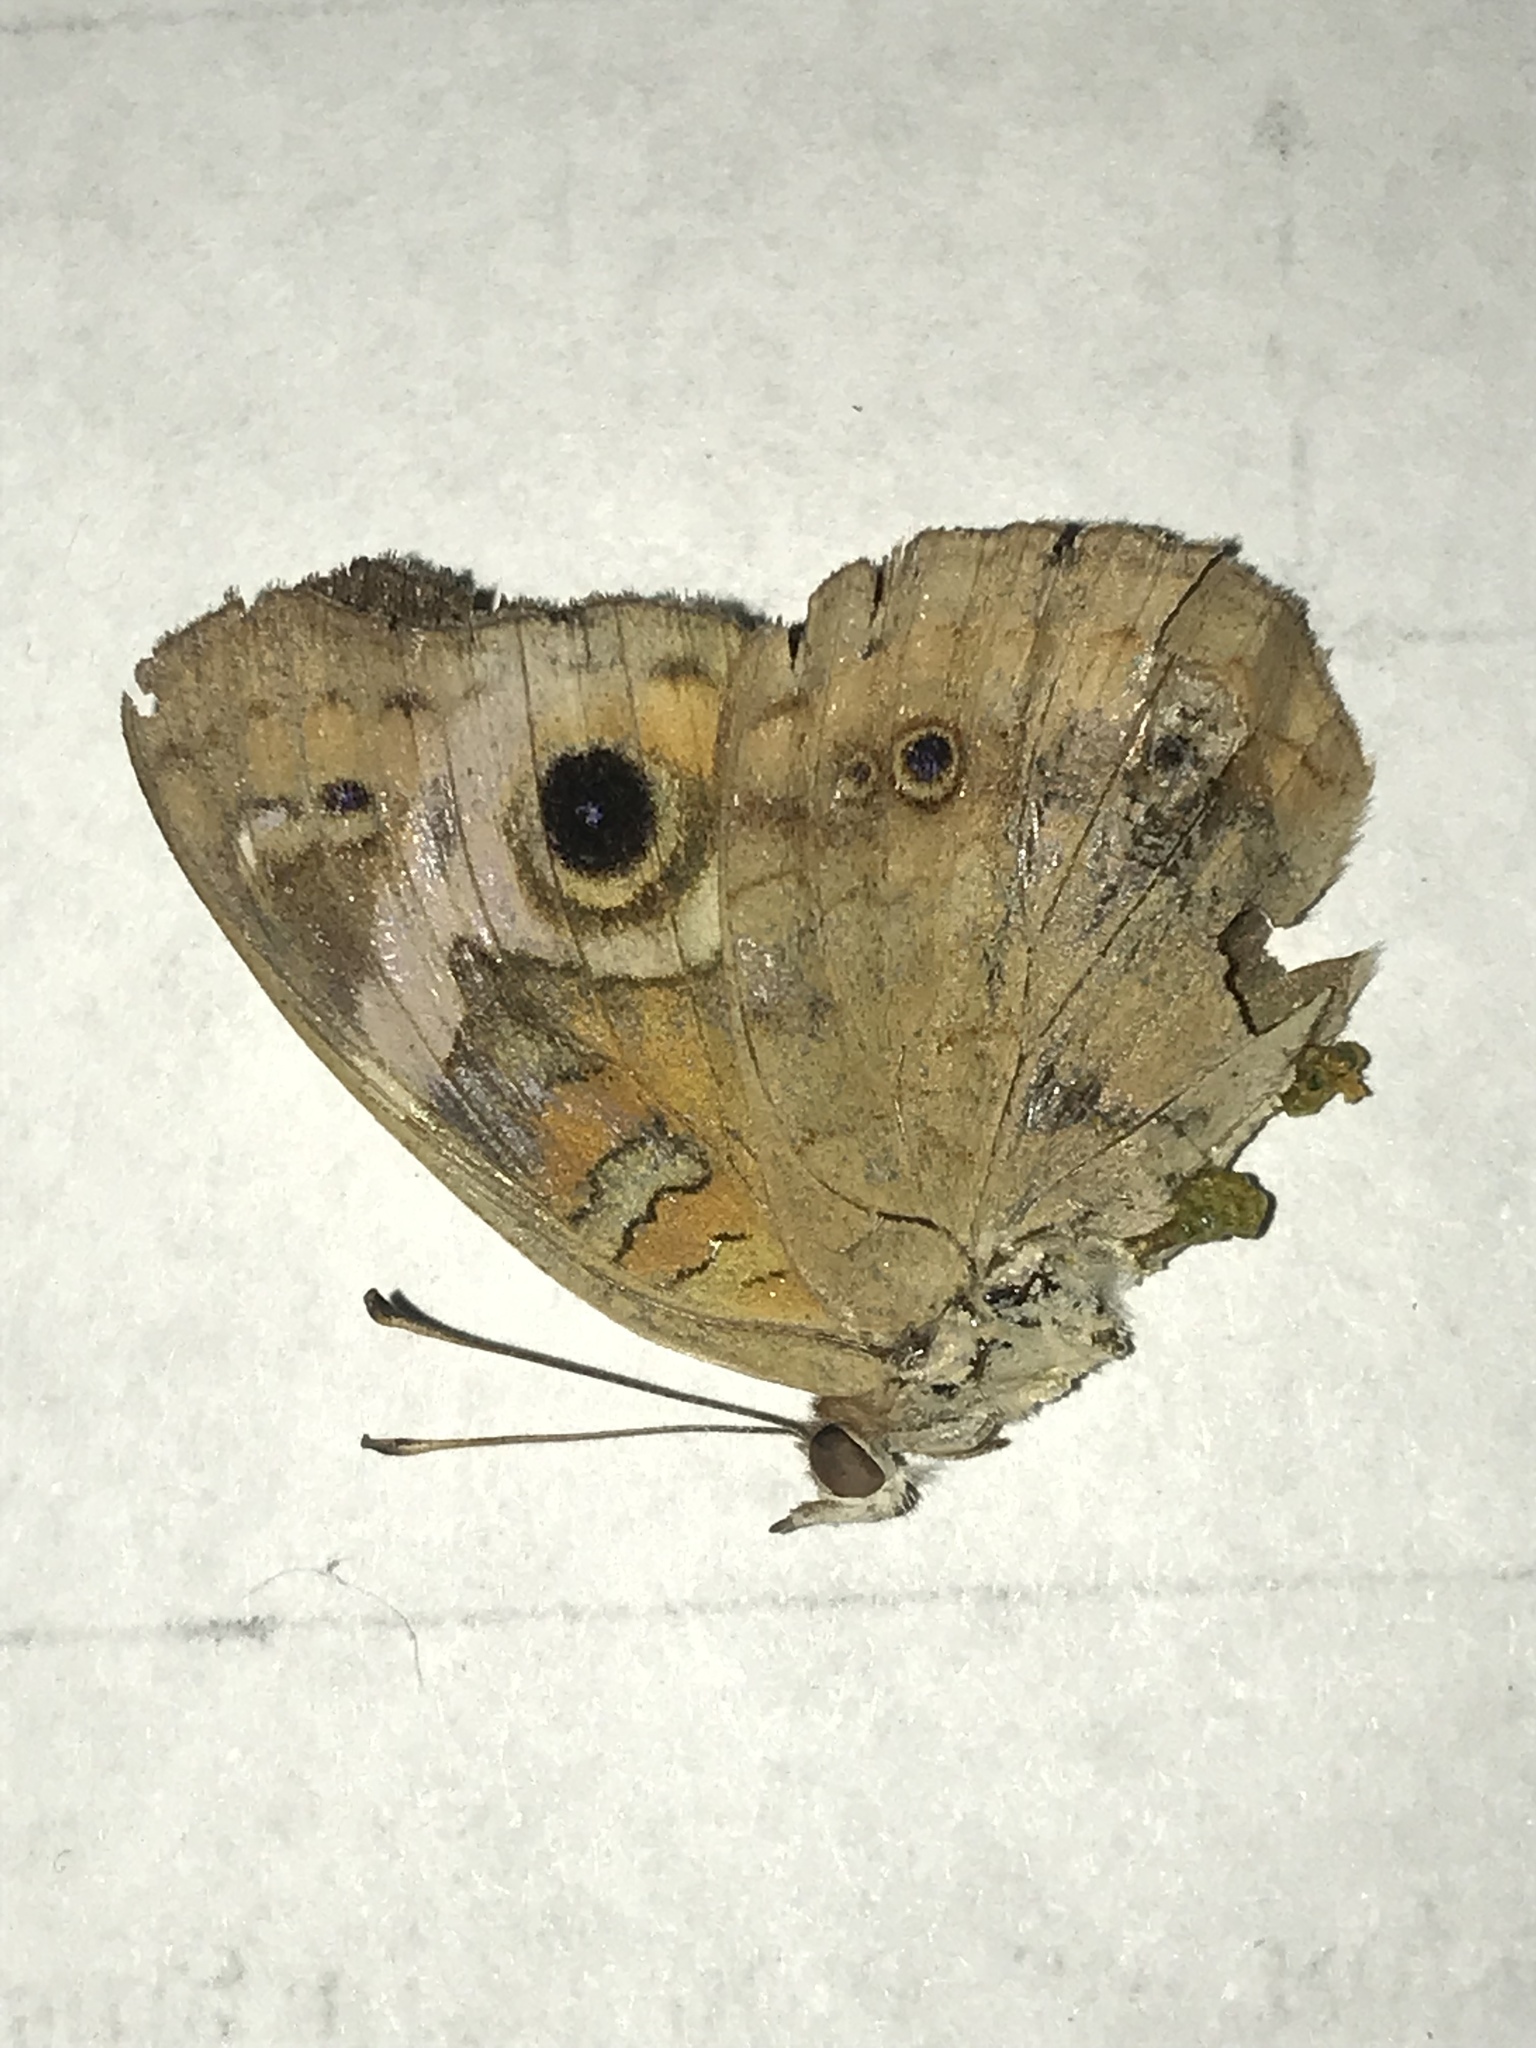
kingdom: Animalia
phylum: Arthropoda
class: Insecta
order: Lepidoptera
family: Nymphalidae
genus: Junonia
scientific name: Junonia coenia
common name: Common buckeye
